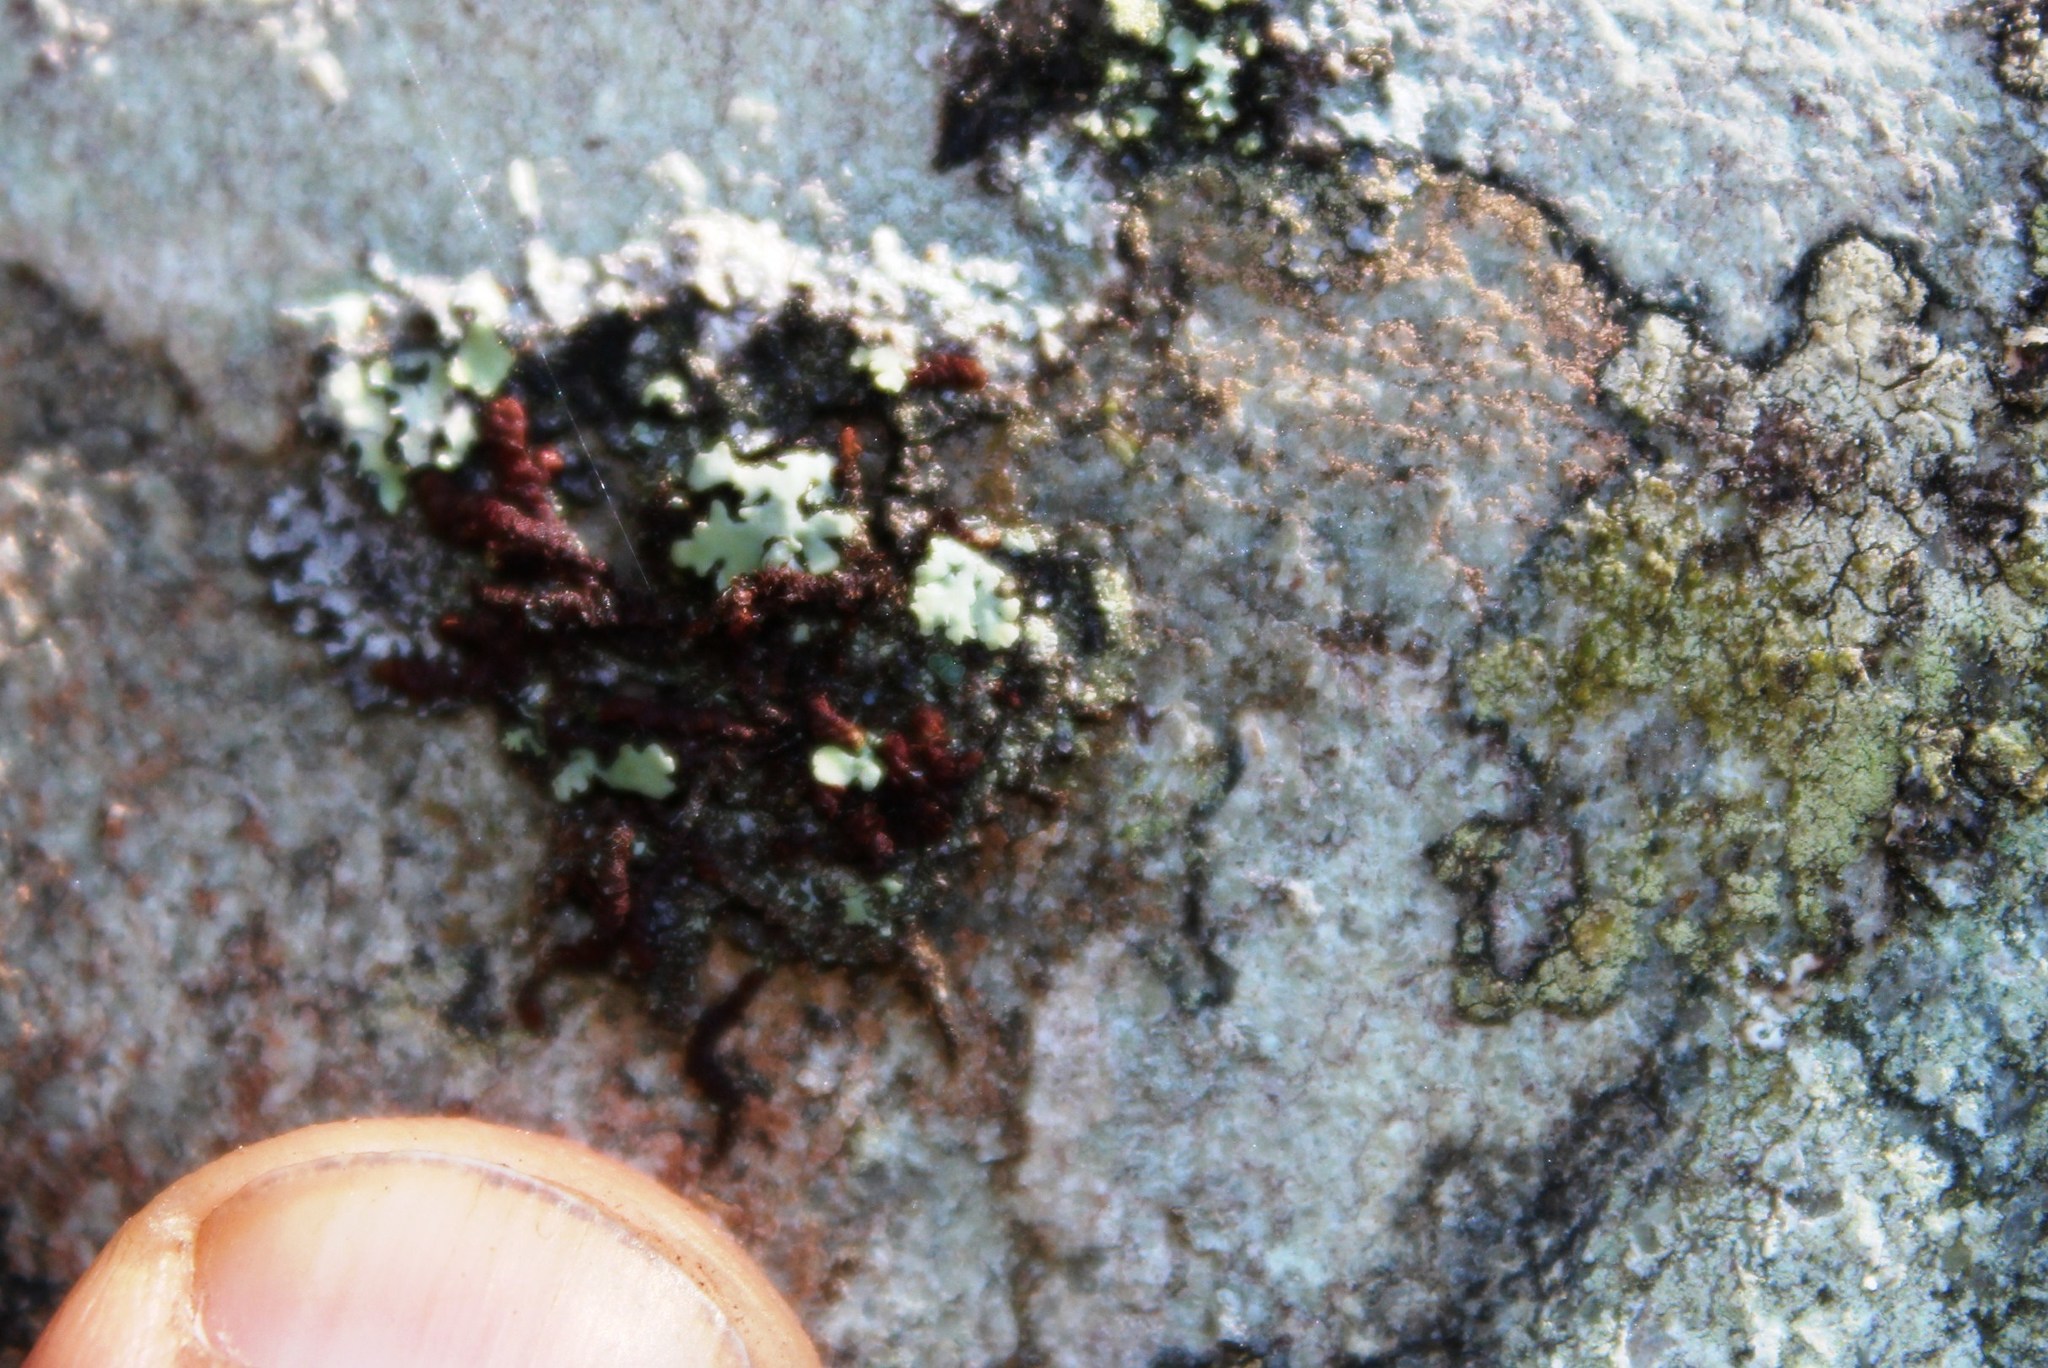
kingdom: Fungi
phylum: Ascomycota
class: Lecanoromycetes
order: Umbilicariales
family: Umbilicariaceae
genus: Lasallia
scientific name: Lasallia rubiginosa
